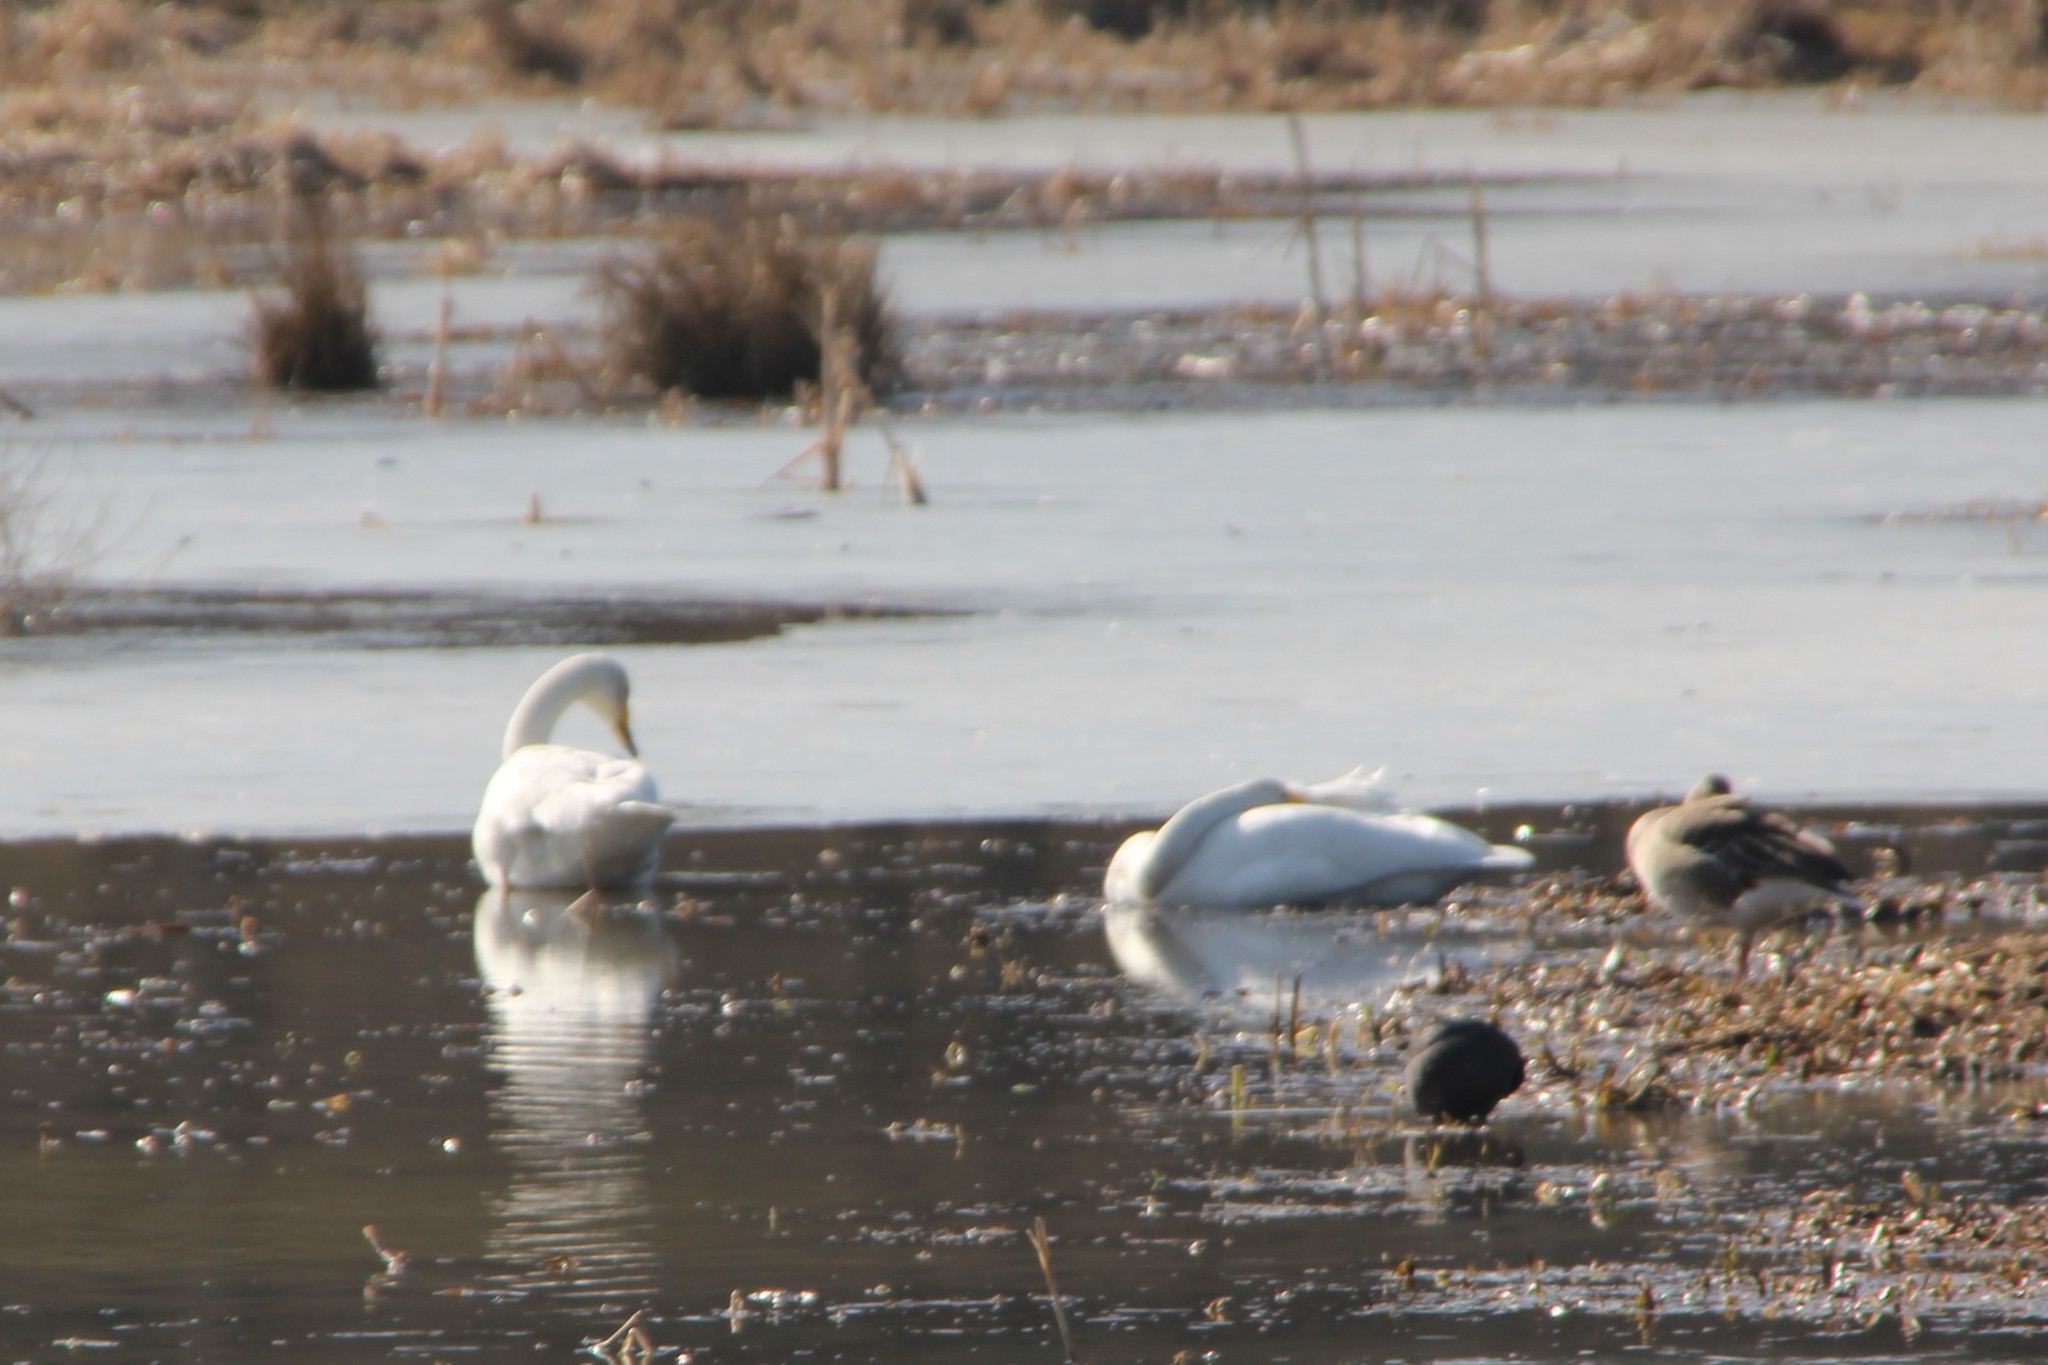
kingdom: Animalia
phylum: Chordata
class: Aves
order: Anseriformes
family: Anatidae
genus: Cygnus
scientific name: Cygnus cygnus
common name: Whooper swan
